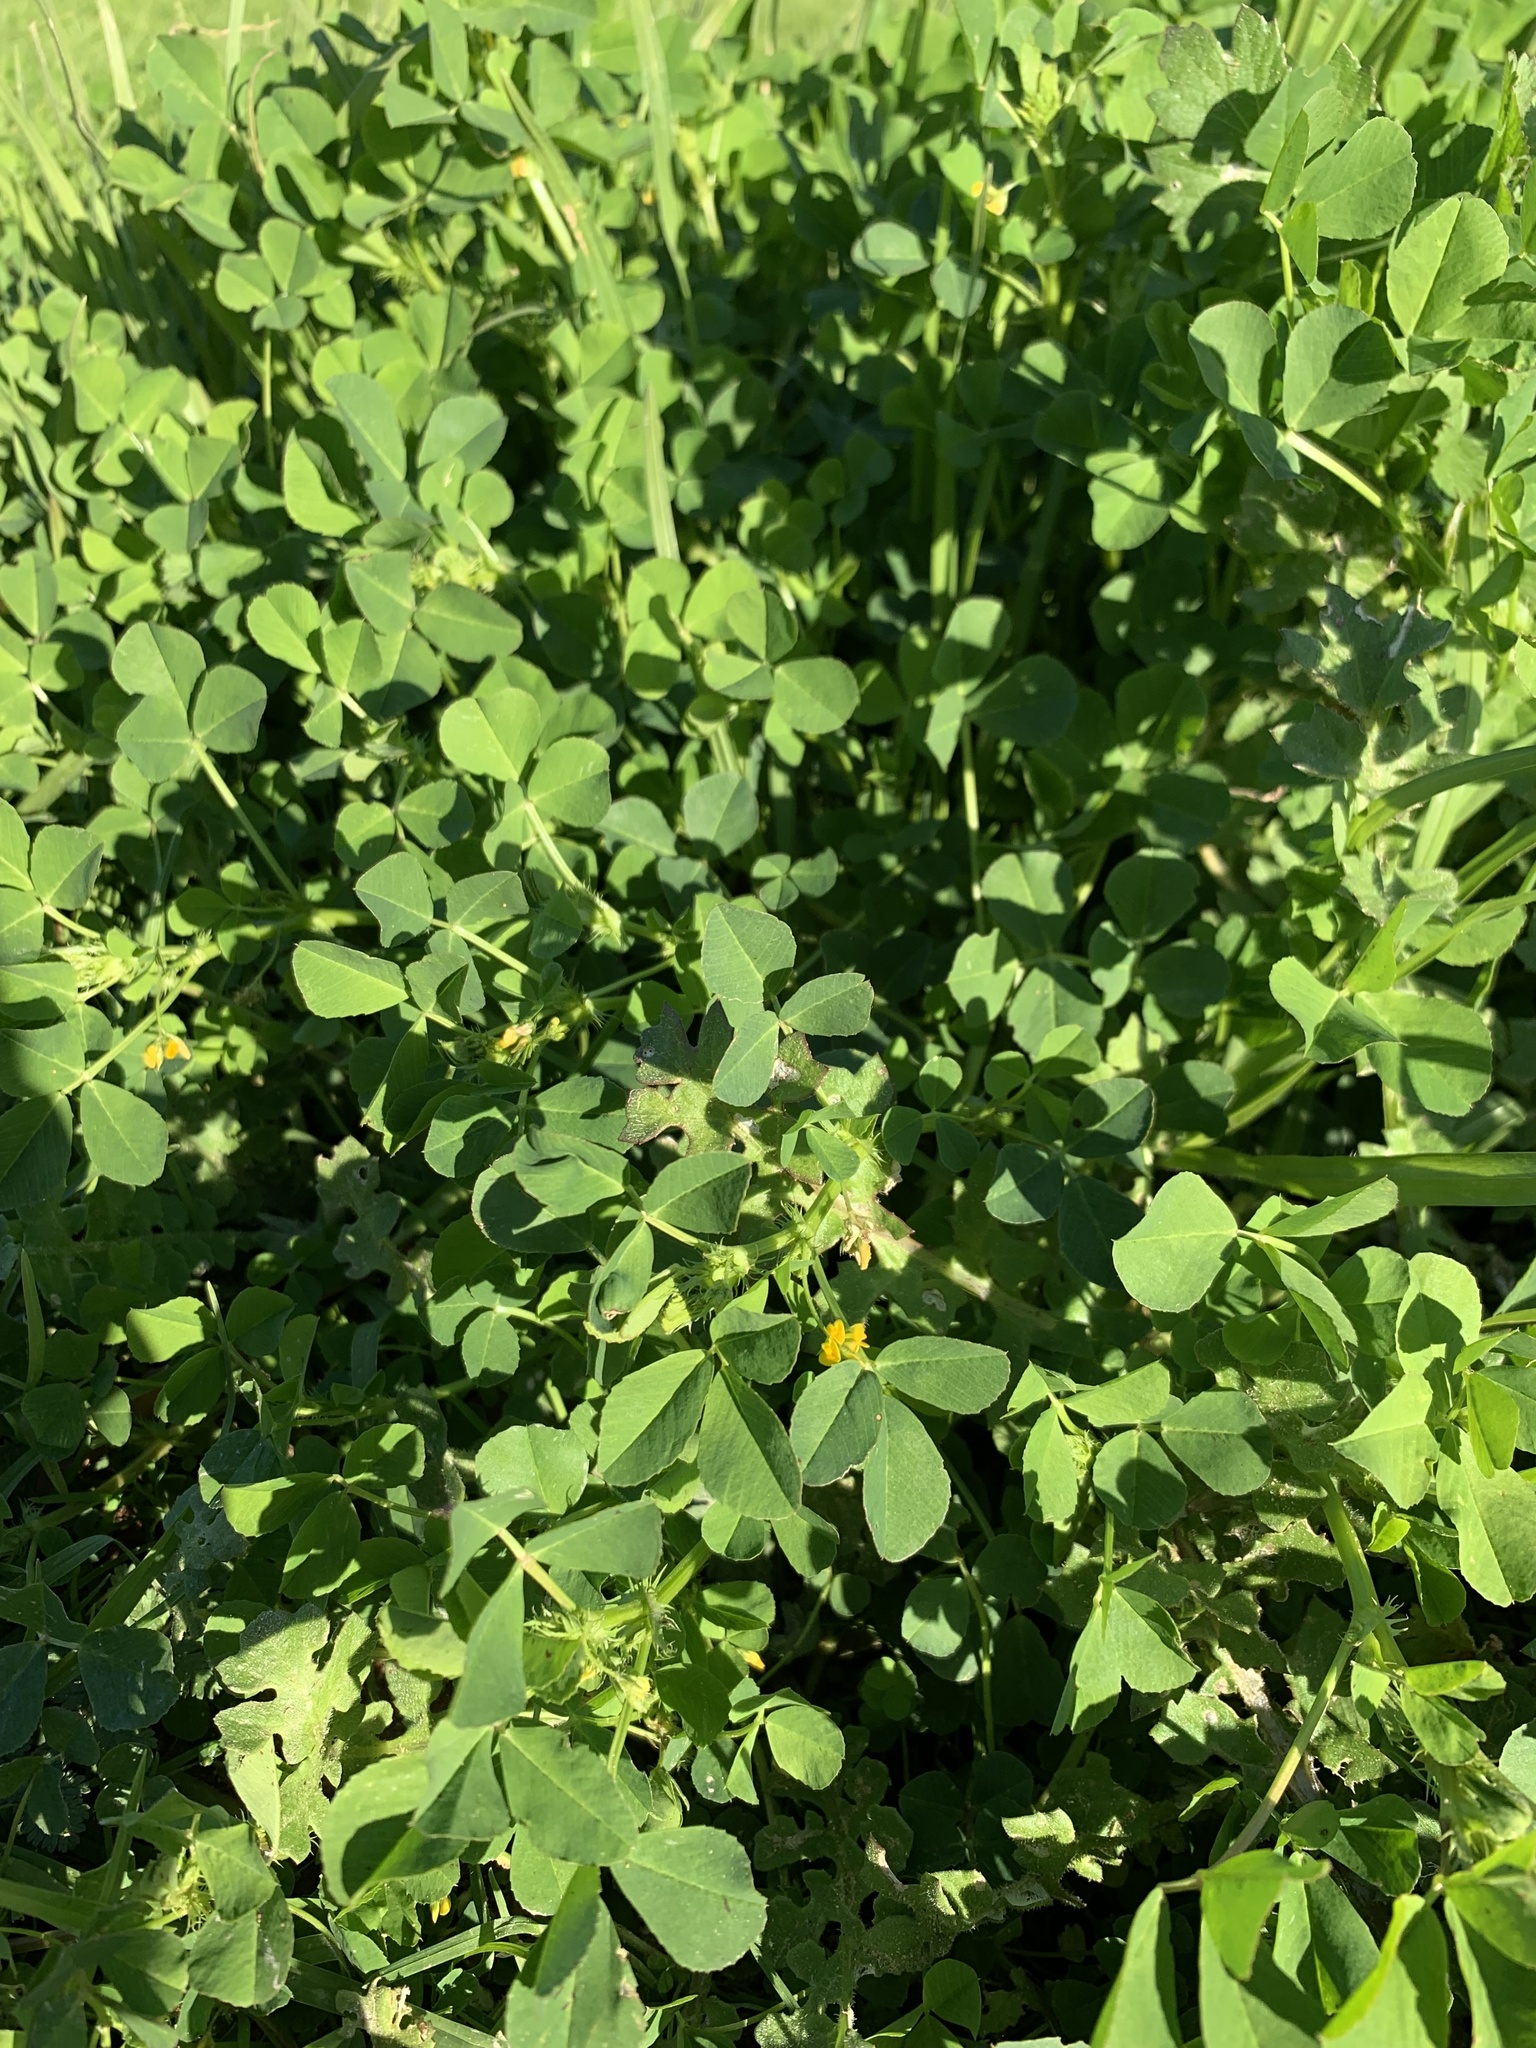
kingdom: Plantae
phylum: Tracheophyta
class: Magnoliopsida
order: Fabales
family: Fabaceae
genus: Medicago
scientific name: Medicago polymorpha
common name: Burclover
